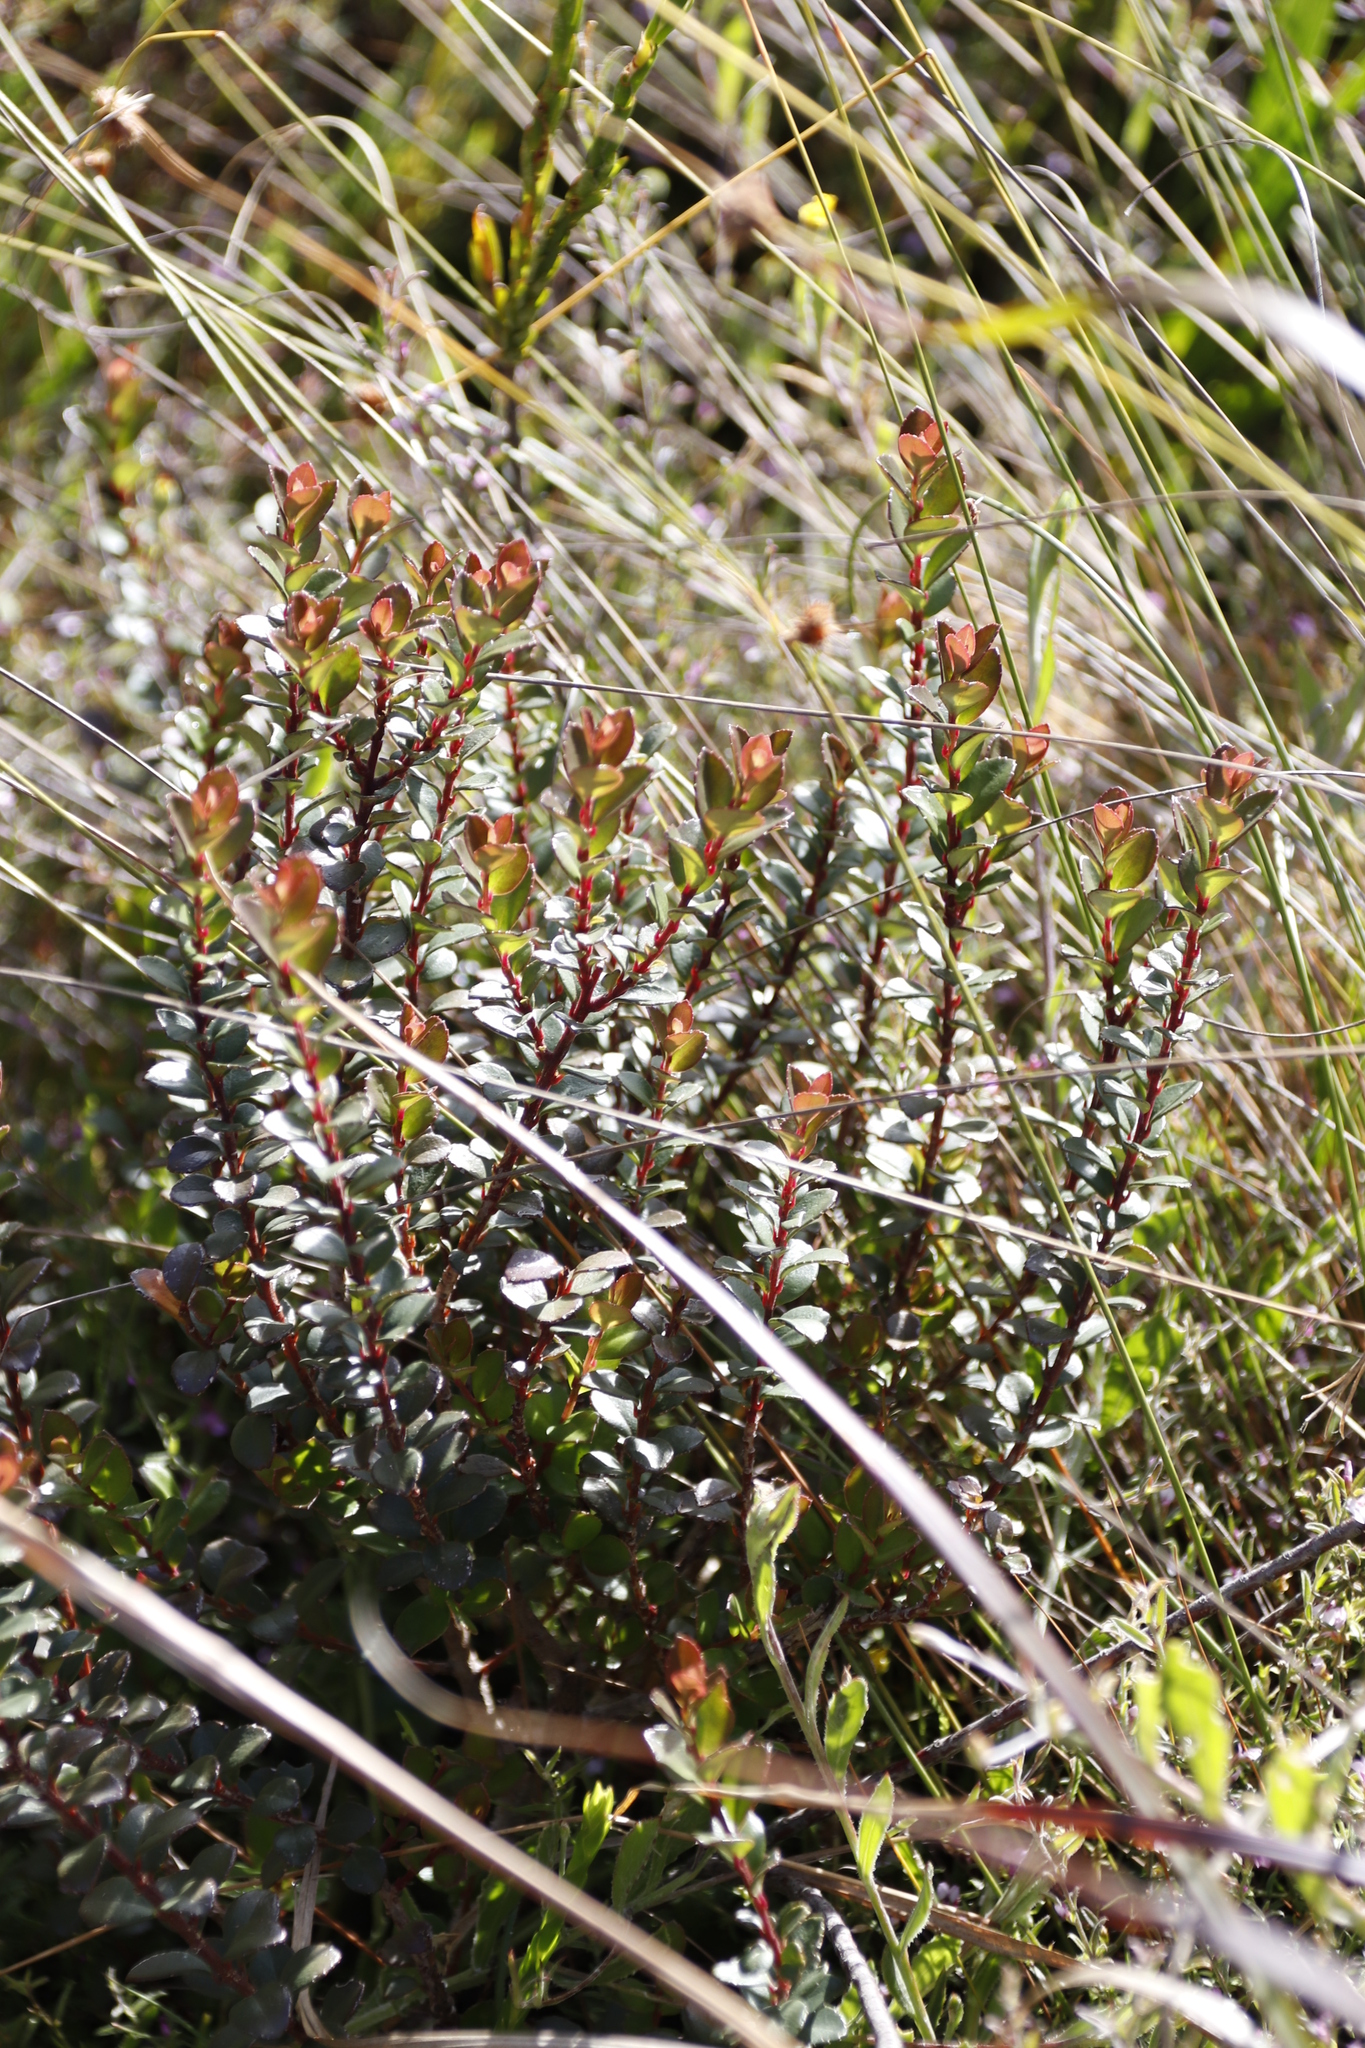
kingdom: Plantae
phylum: Tracheophyta
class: Magnoliopsida
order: Ericales
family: Primulaceae
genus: Myrsine
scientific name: Myrsine africana
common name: African-boxwood
